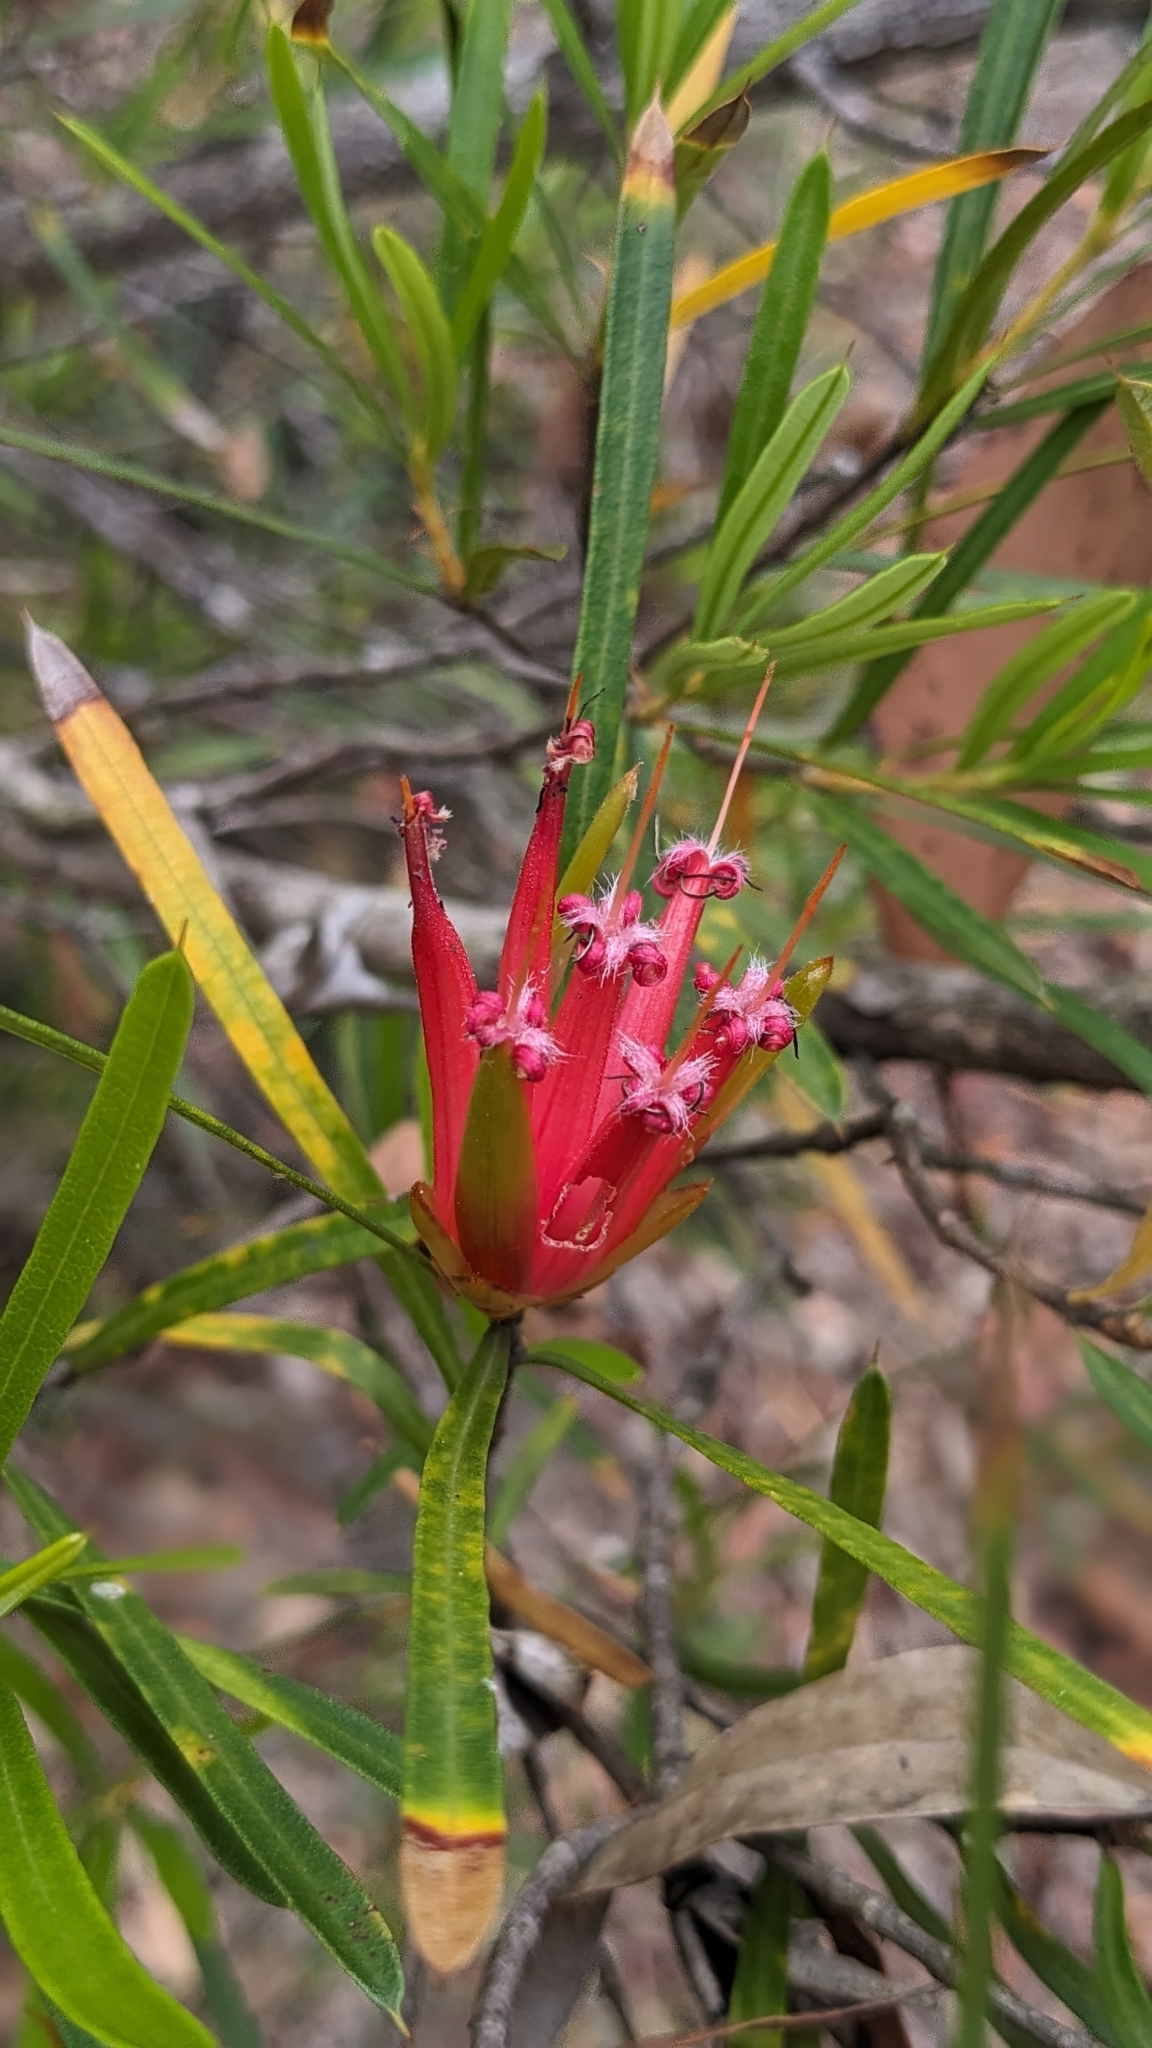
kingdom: Plantae
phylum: Tracheophyta
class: Magnoliopsida
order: Proteales
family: Proteaceae
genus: Lambertia
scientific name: Lambertia formosa
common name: Mountain-devil
